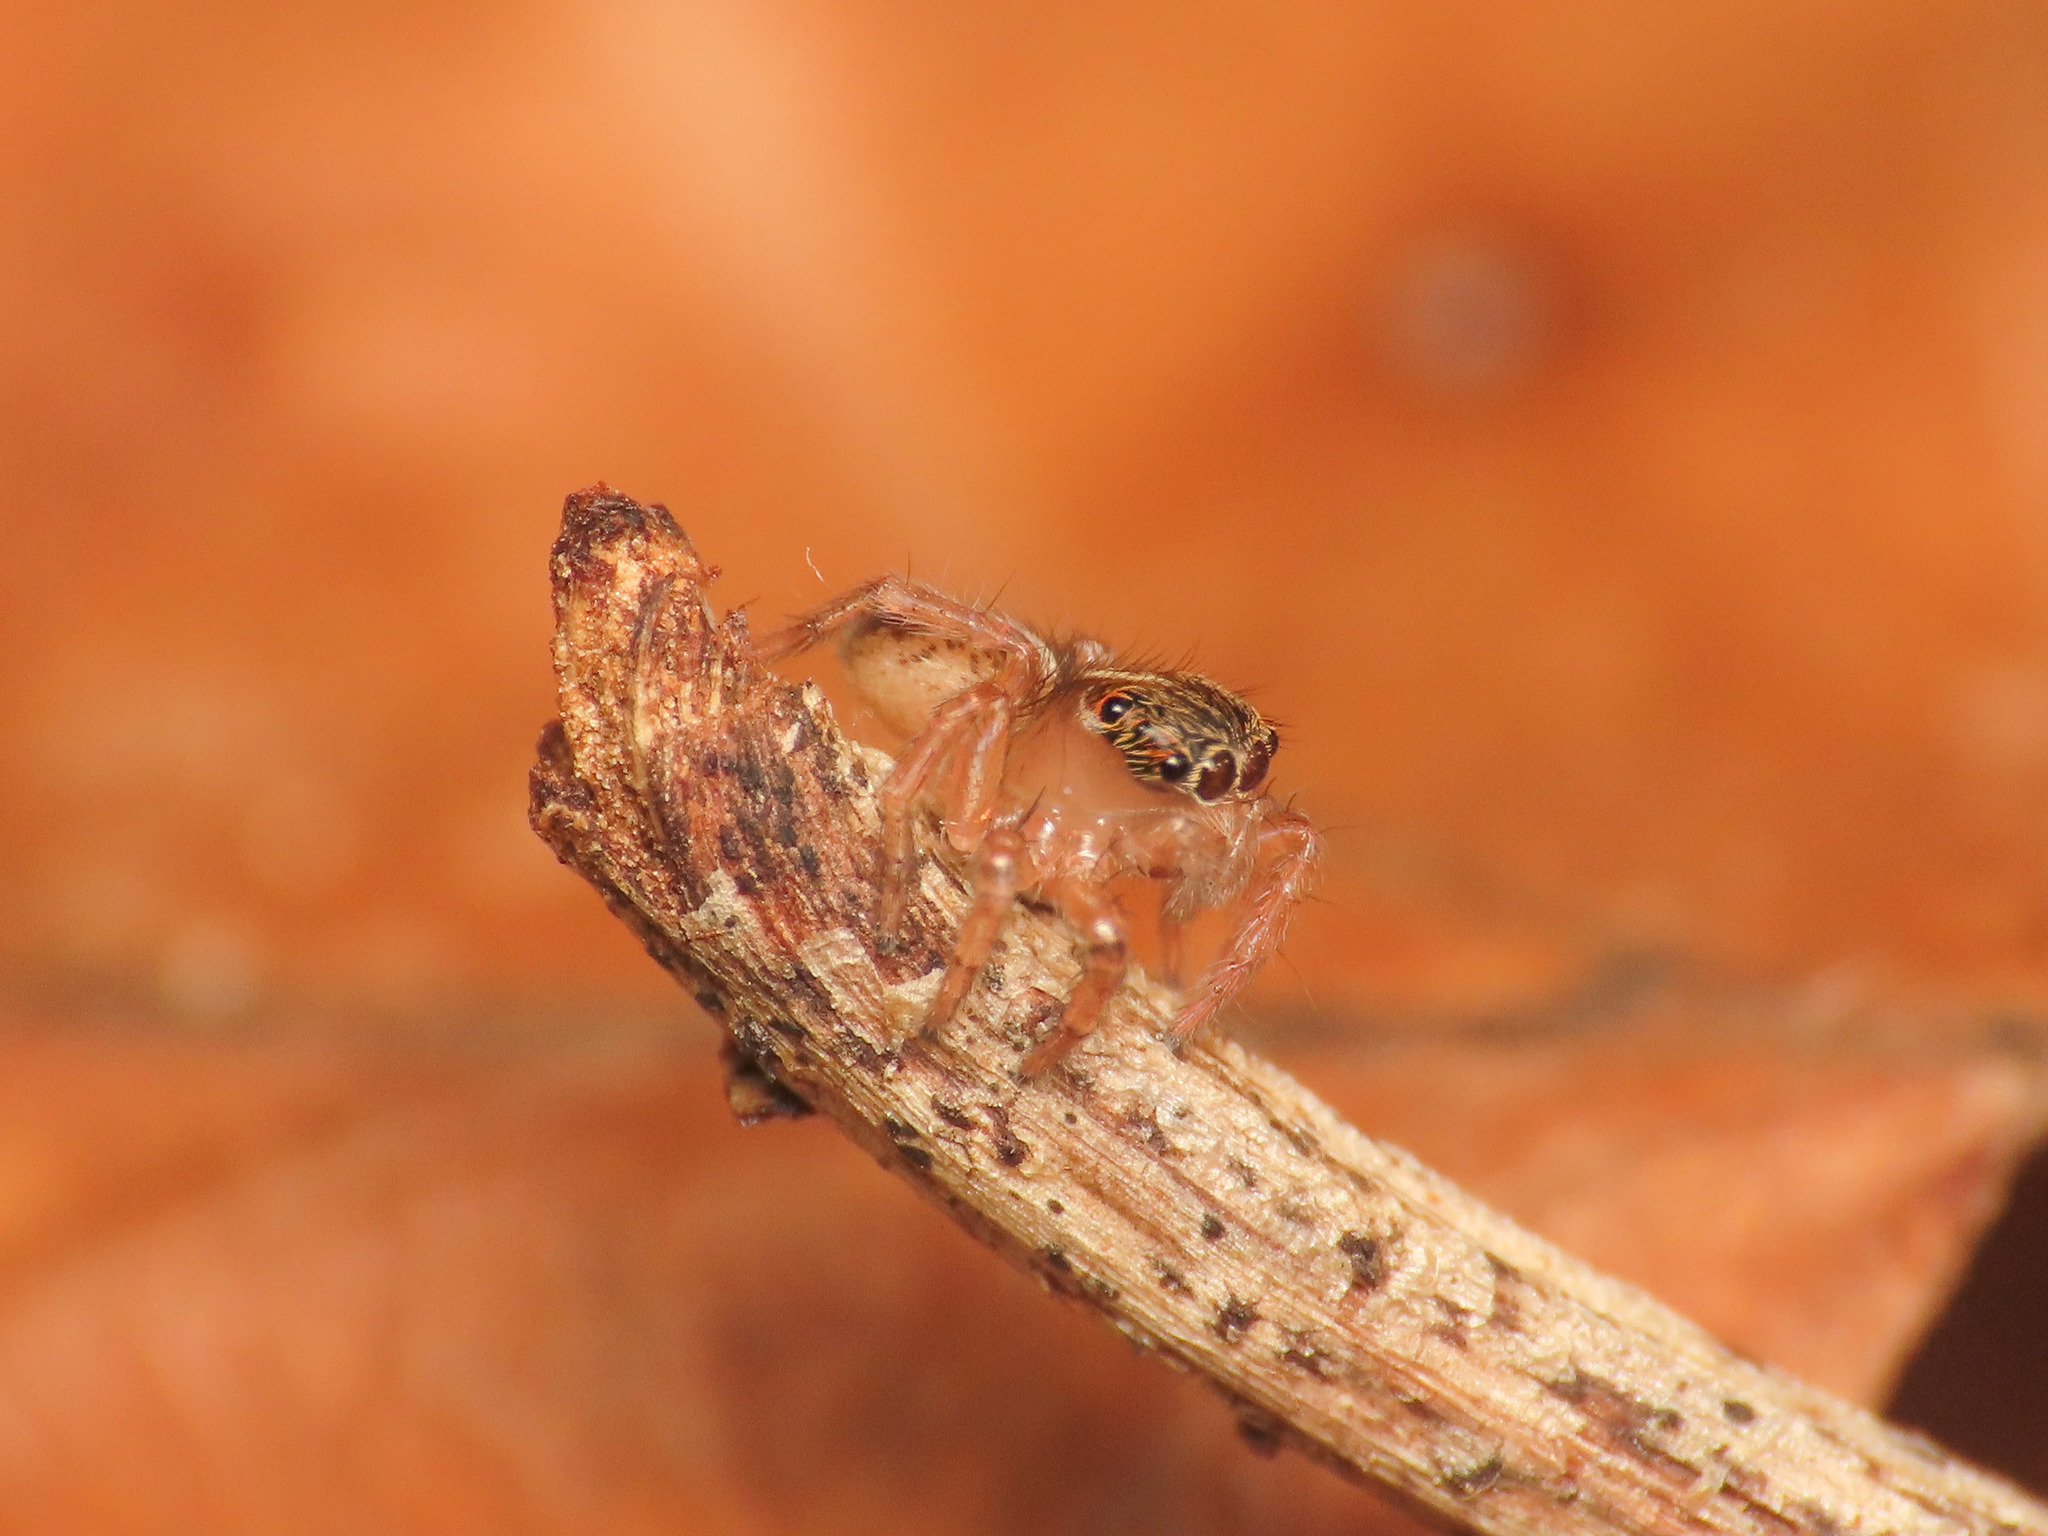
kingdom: Animalia
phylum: Arthropoda
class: Arachnida
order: Araneae
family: Salticidae
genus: Saitis
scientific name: Saitis barbipes
